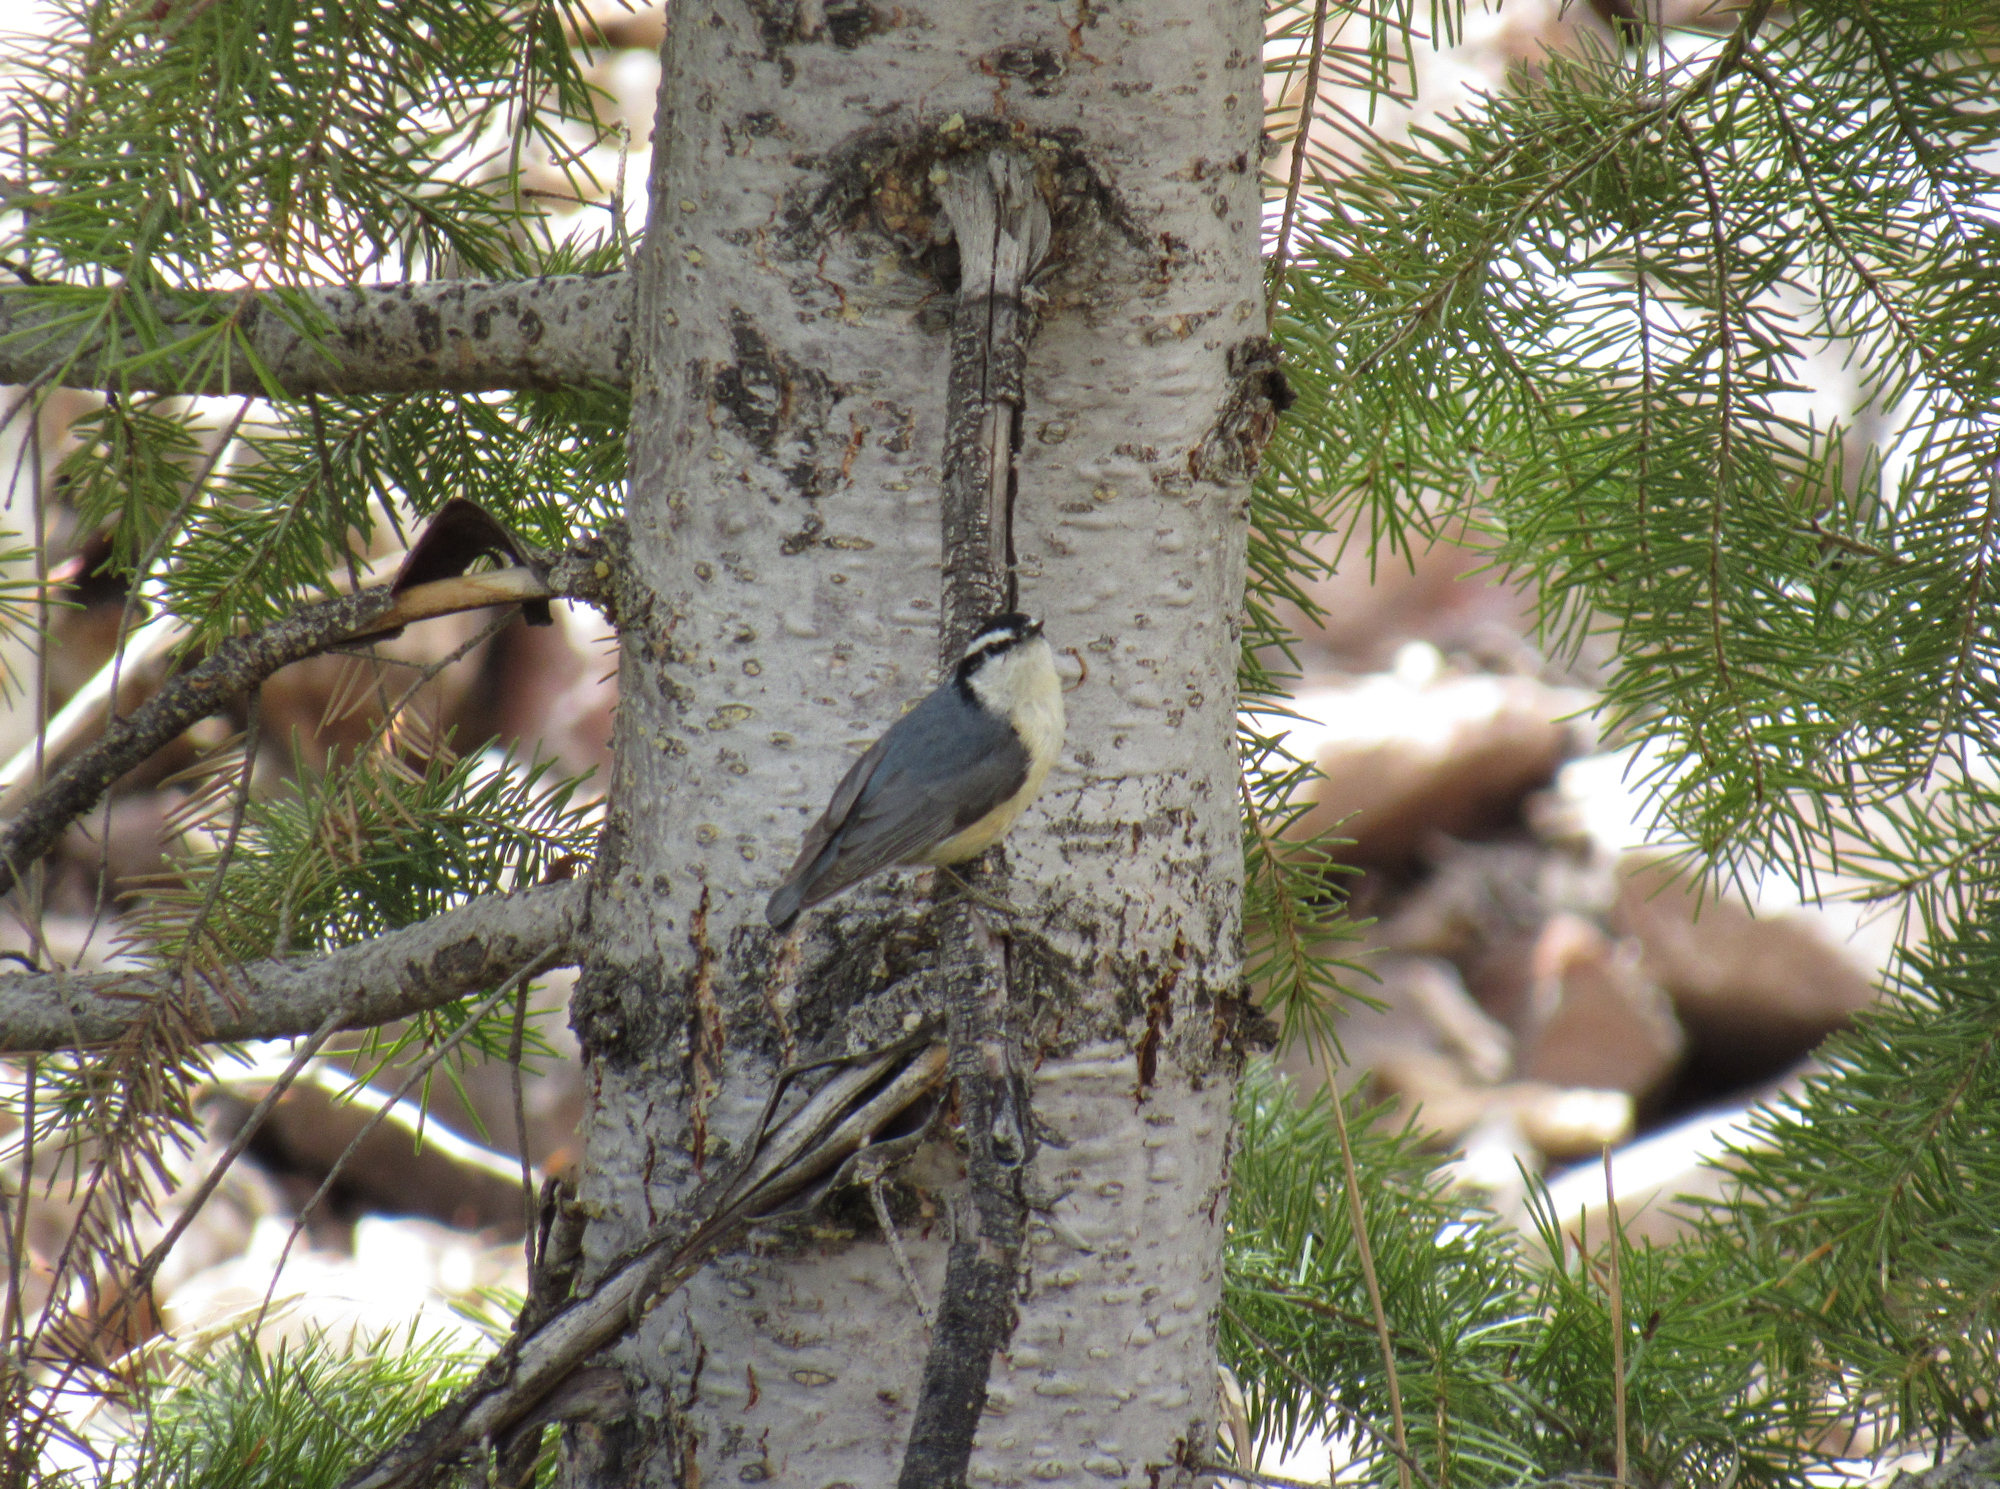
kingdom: Animalia
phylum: Chordata
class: Aves
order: Passeriformes
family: Sittidae
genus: Sitta
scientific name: Sitta canadensis
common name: Red-breasted nuthatch
